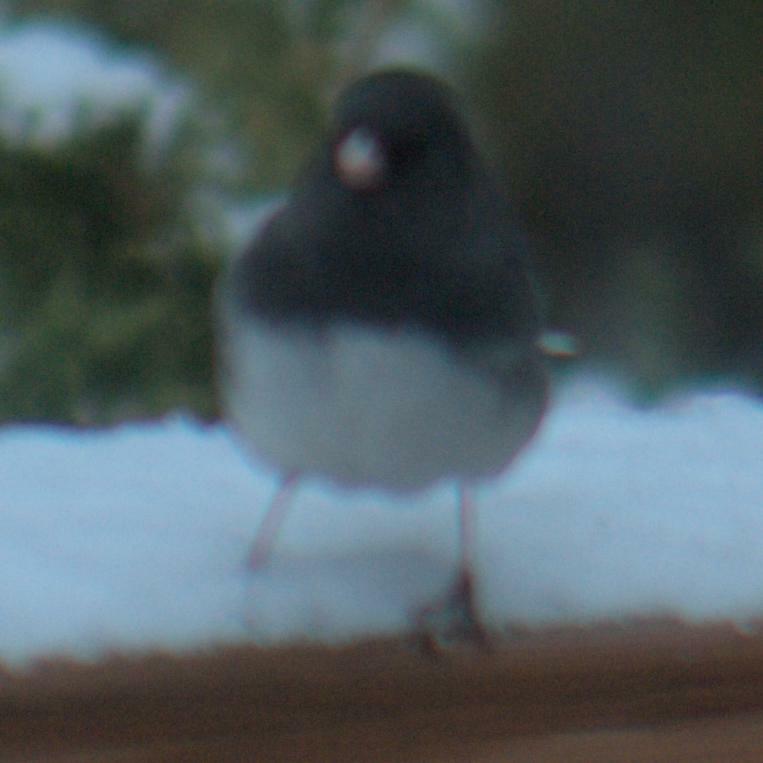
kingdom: Animalia
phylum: Chordata
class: Aves
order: Passeriformes
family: Passerellidae
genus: Junco
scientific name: Junco hyemalis
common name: Dark-eyed junco
